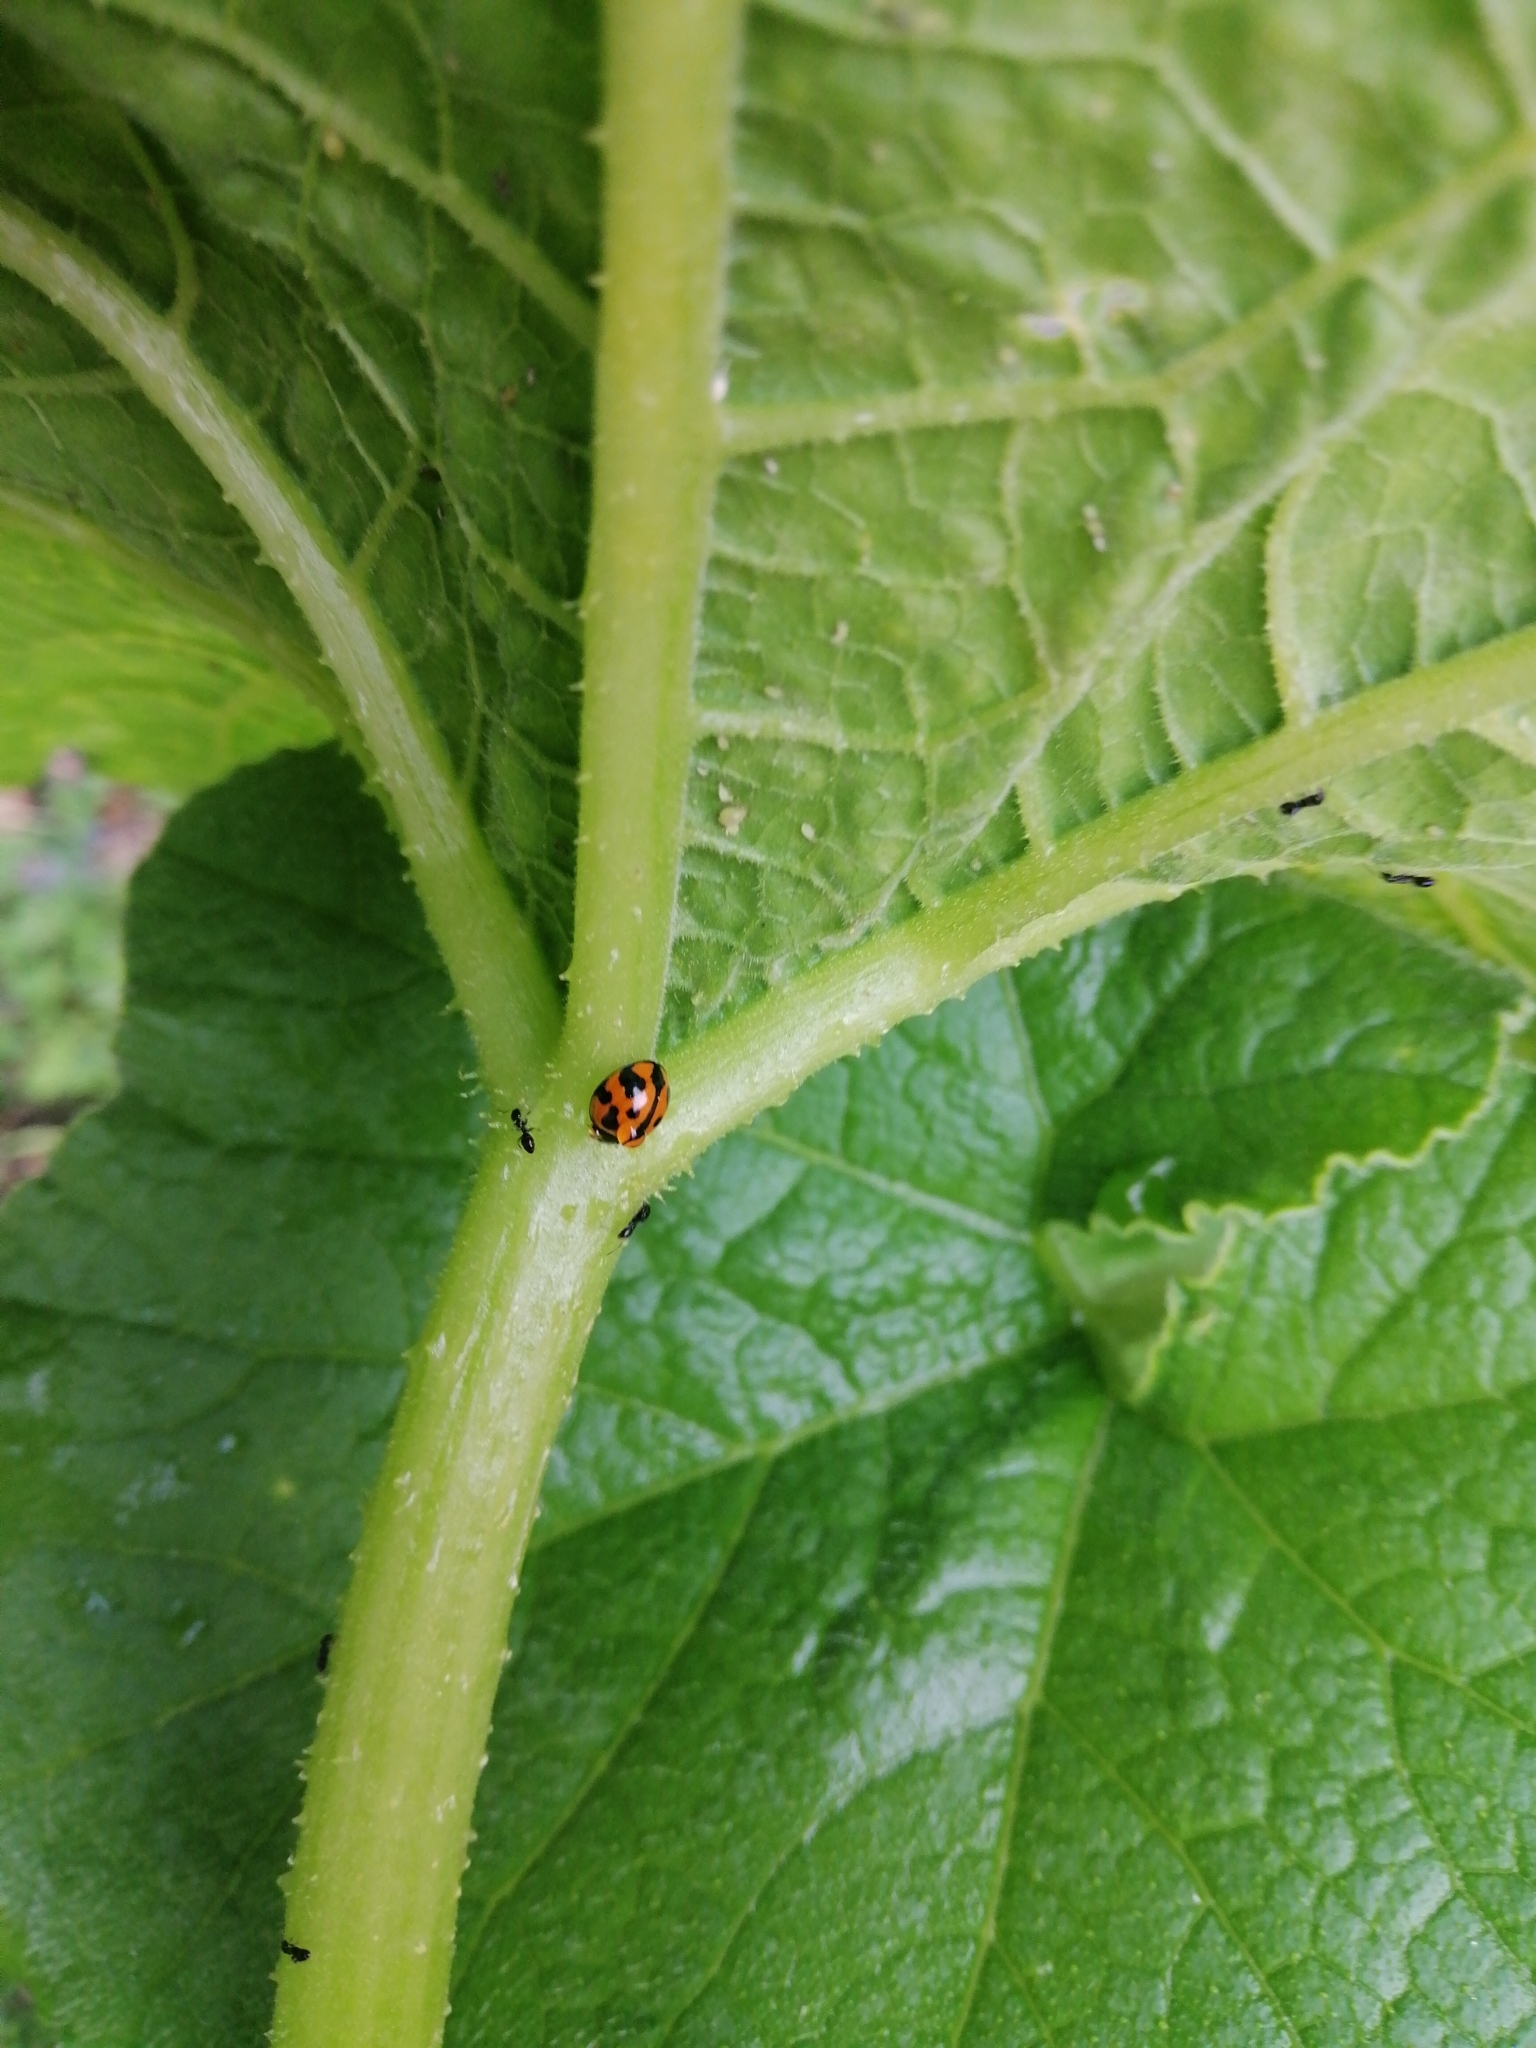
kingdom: Animalia
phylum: Arthropoda
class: Insecta
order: Coleoptera
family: Coccinellidae
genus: Coelophora
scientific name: Coelophora inaequalis
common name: Common australian lady beetle
